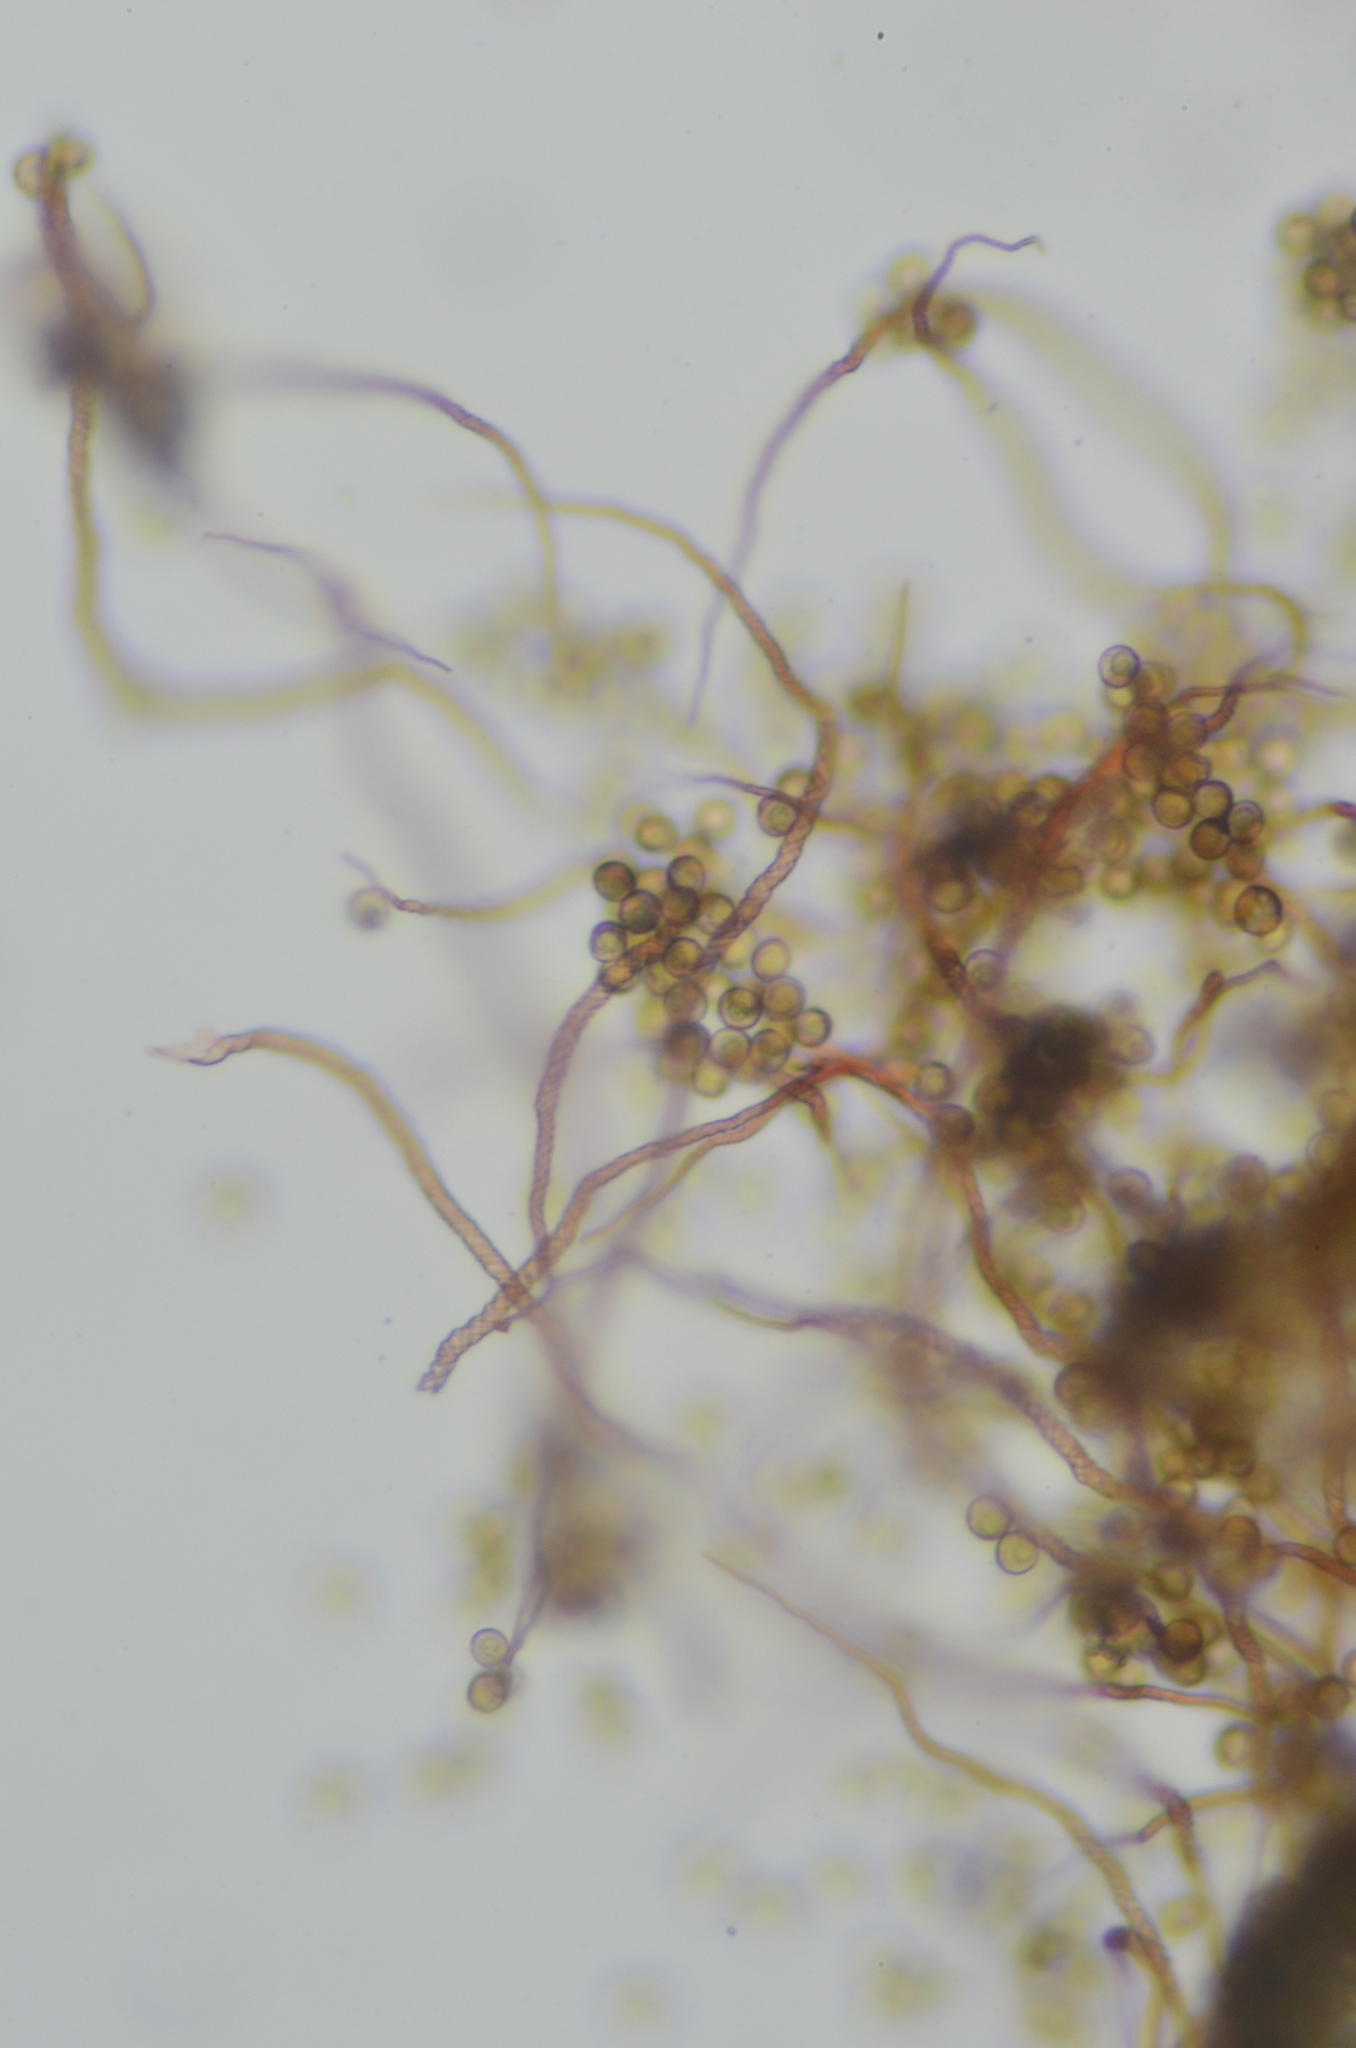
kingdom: Protozoa
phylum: Mycetozoa
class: Myxomycetes
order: Trichiales
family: Trichiaceae
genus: Trichia
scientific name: Trichia botrytis
